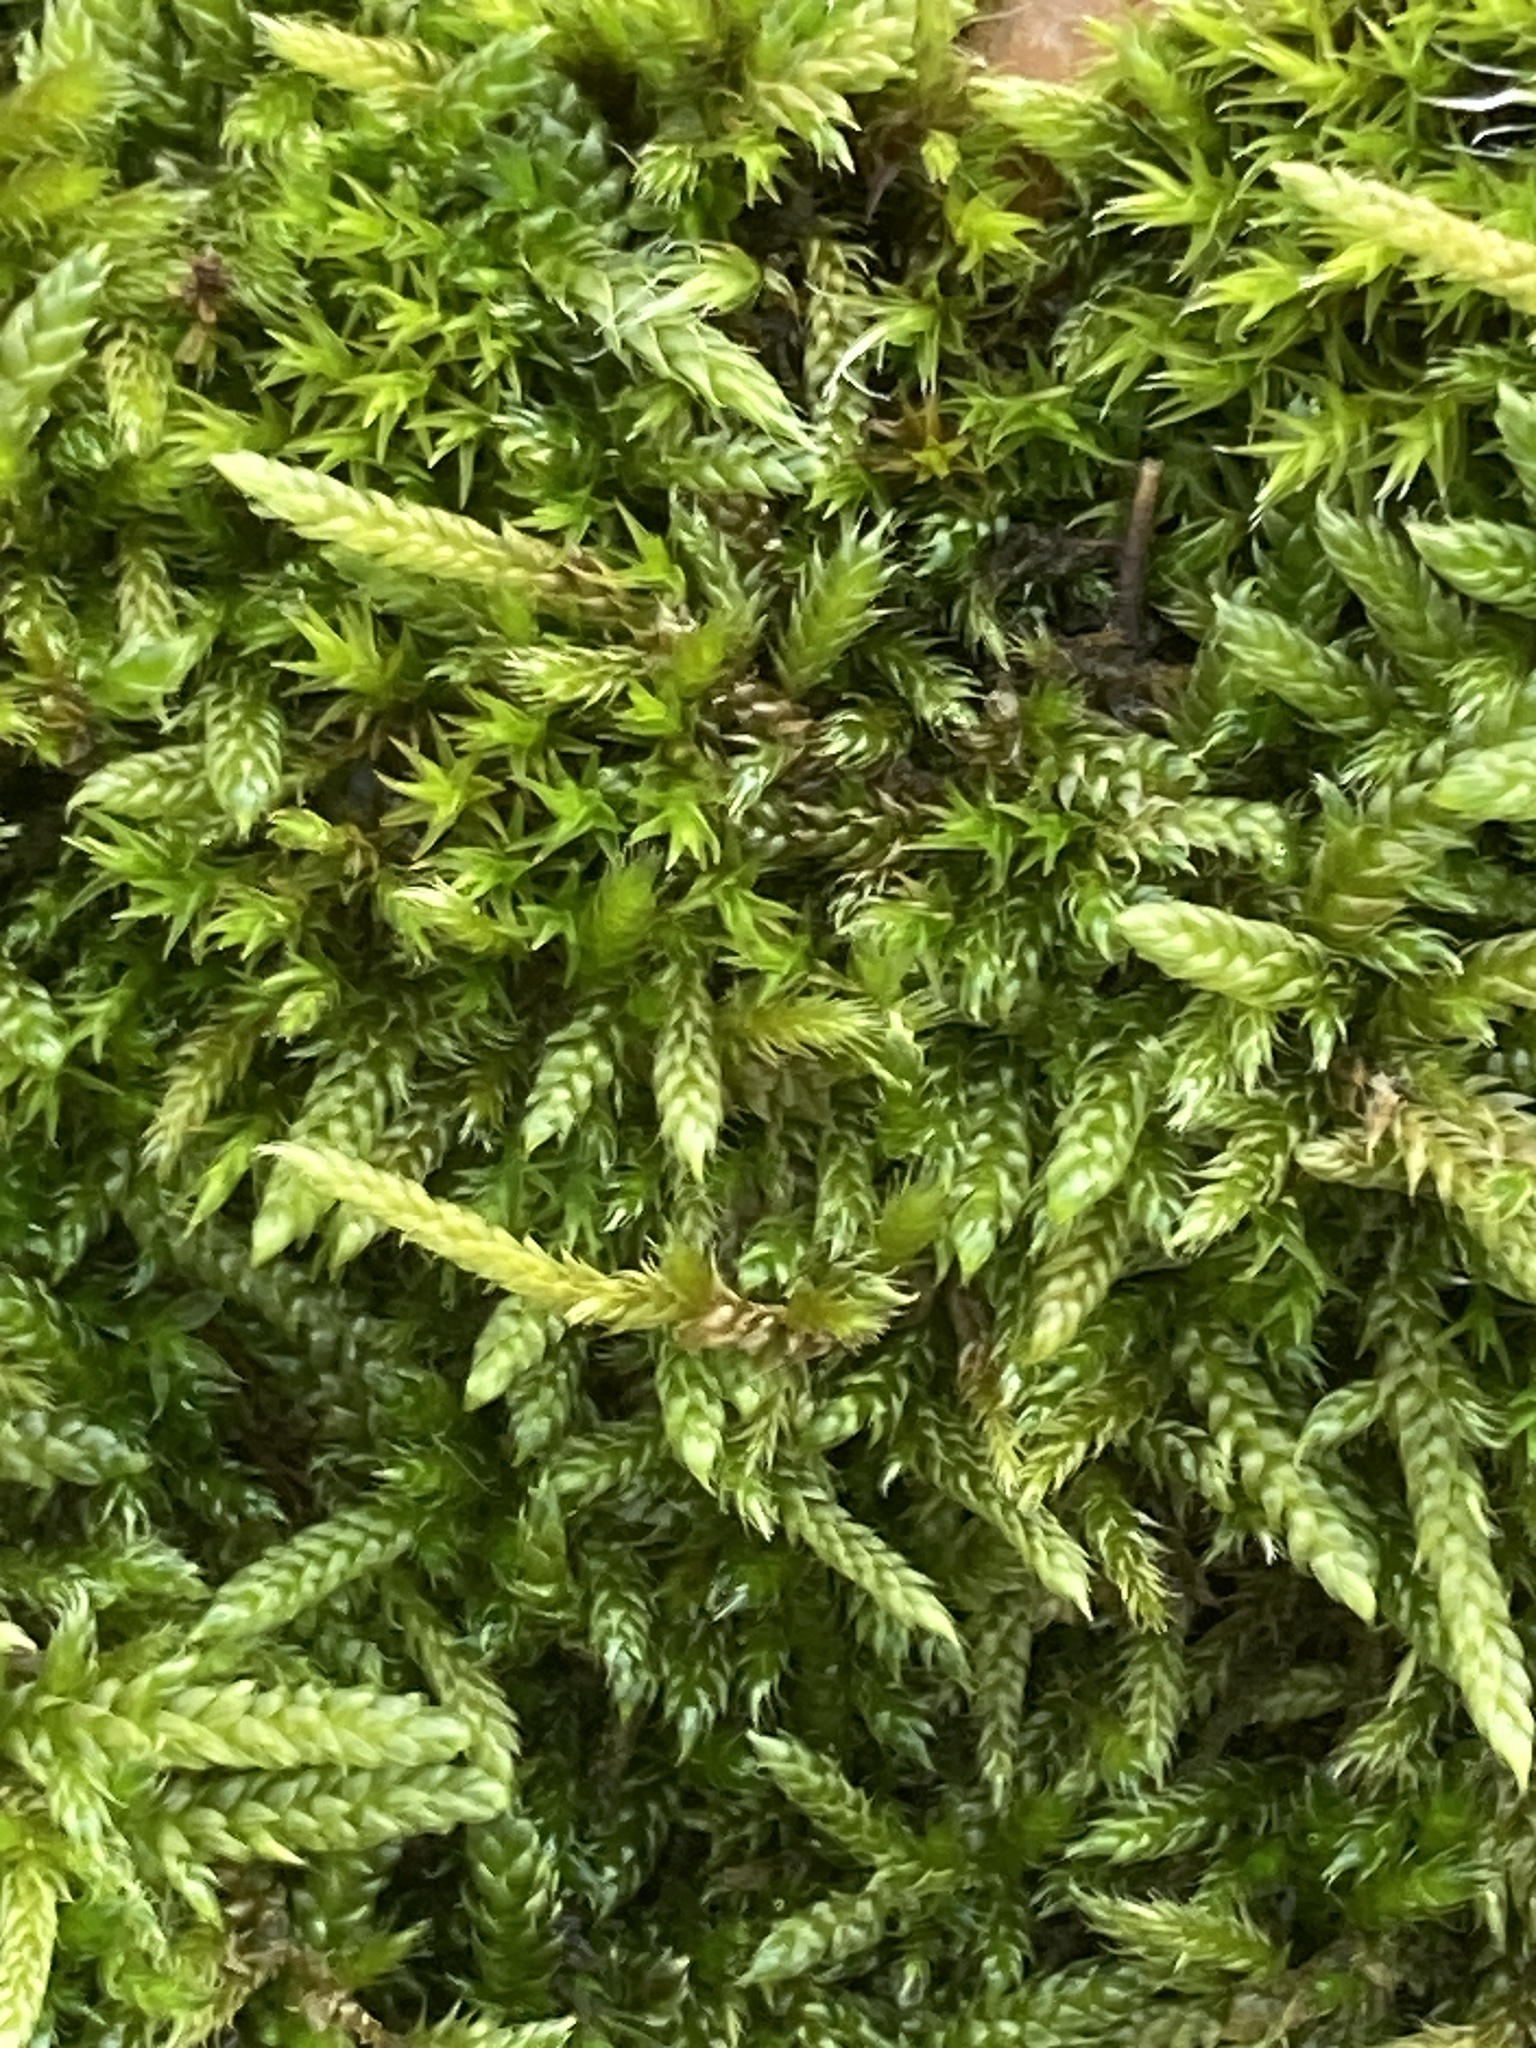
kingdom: Plantae
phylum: Bryophyta
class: Bryopsida
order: Hypnales
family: Hypnaceae
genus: Hypnum
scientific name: Hypnum cupressiforme
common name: Cypress-leaved plait-moss
